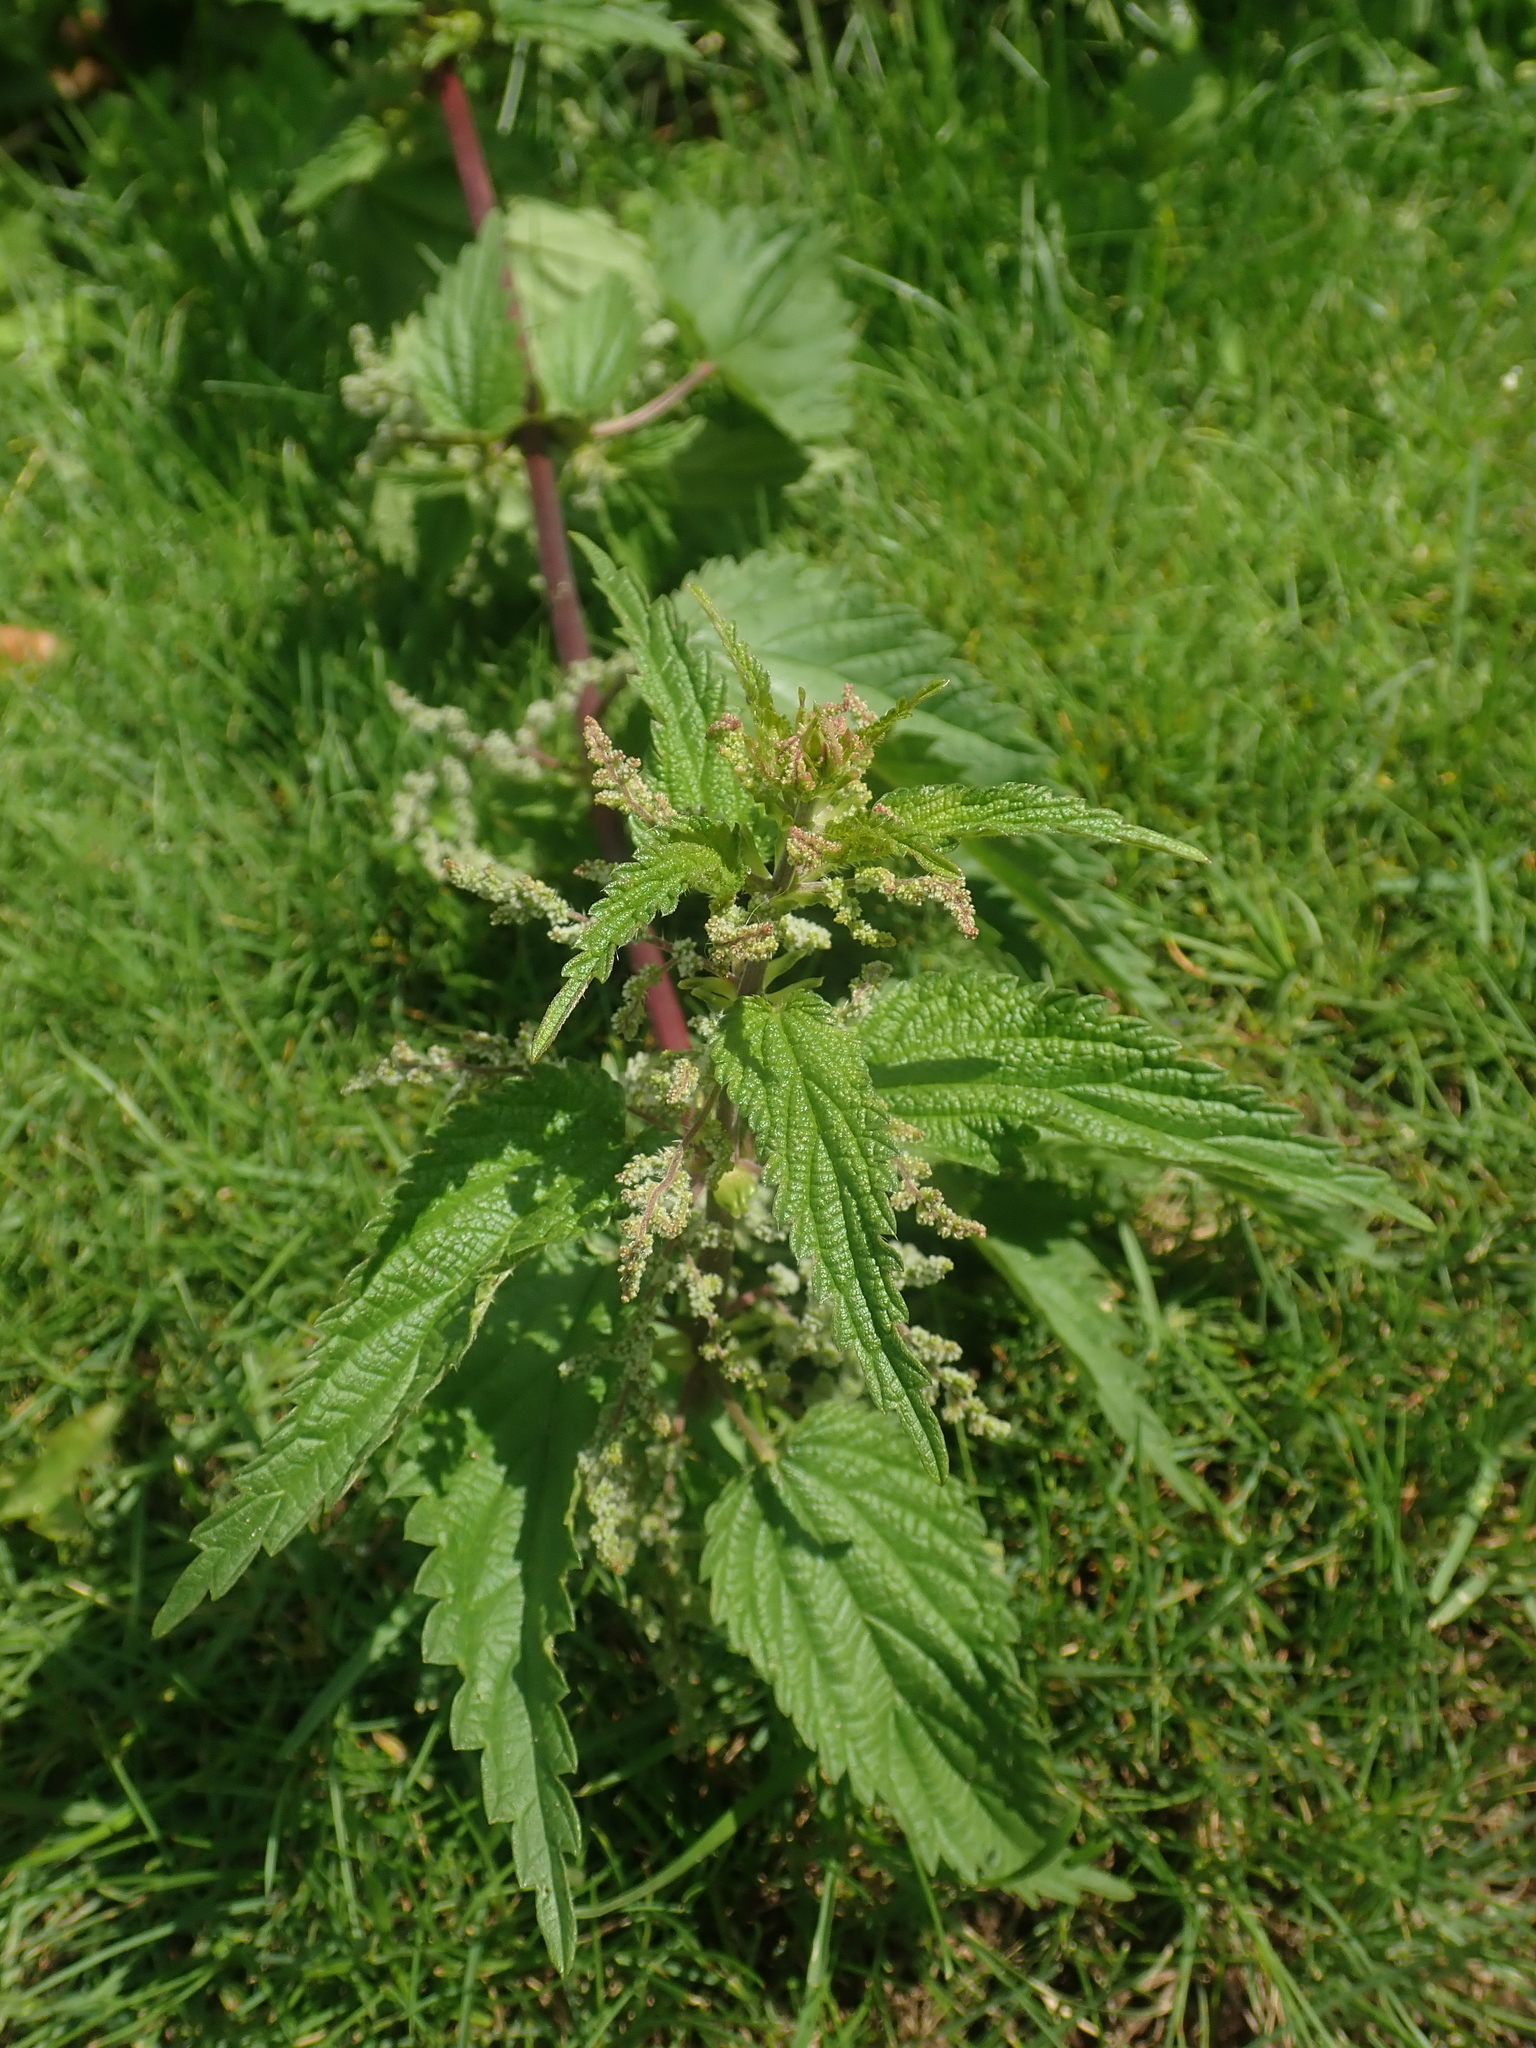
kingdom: Plantae
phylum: Tracheophyta
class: Magnoliopsida
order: Rosales
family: Urticaceae
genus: Urtica
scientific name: Urtica dioica
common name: Common nettle
